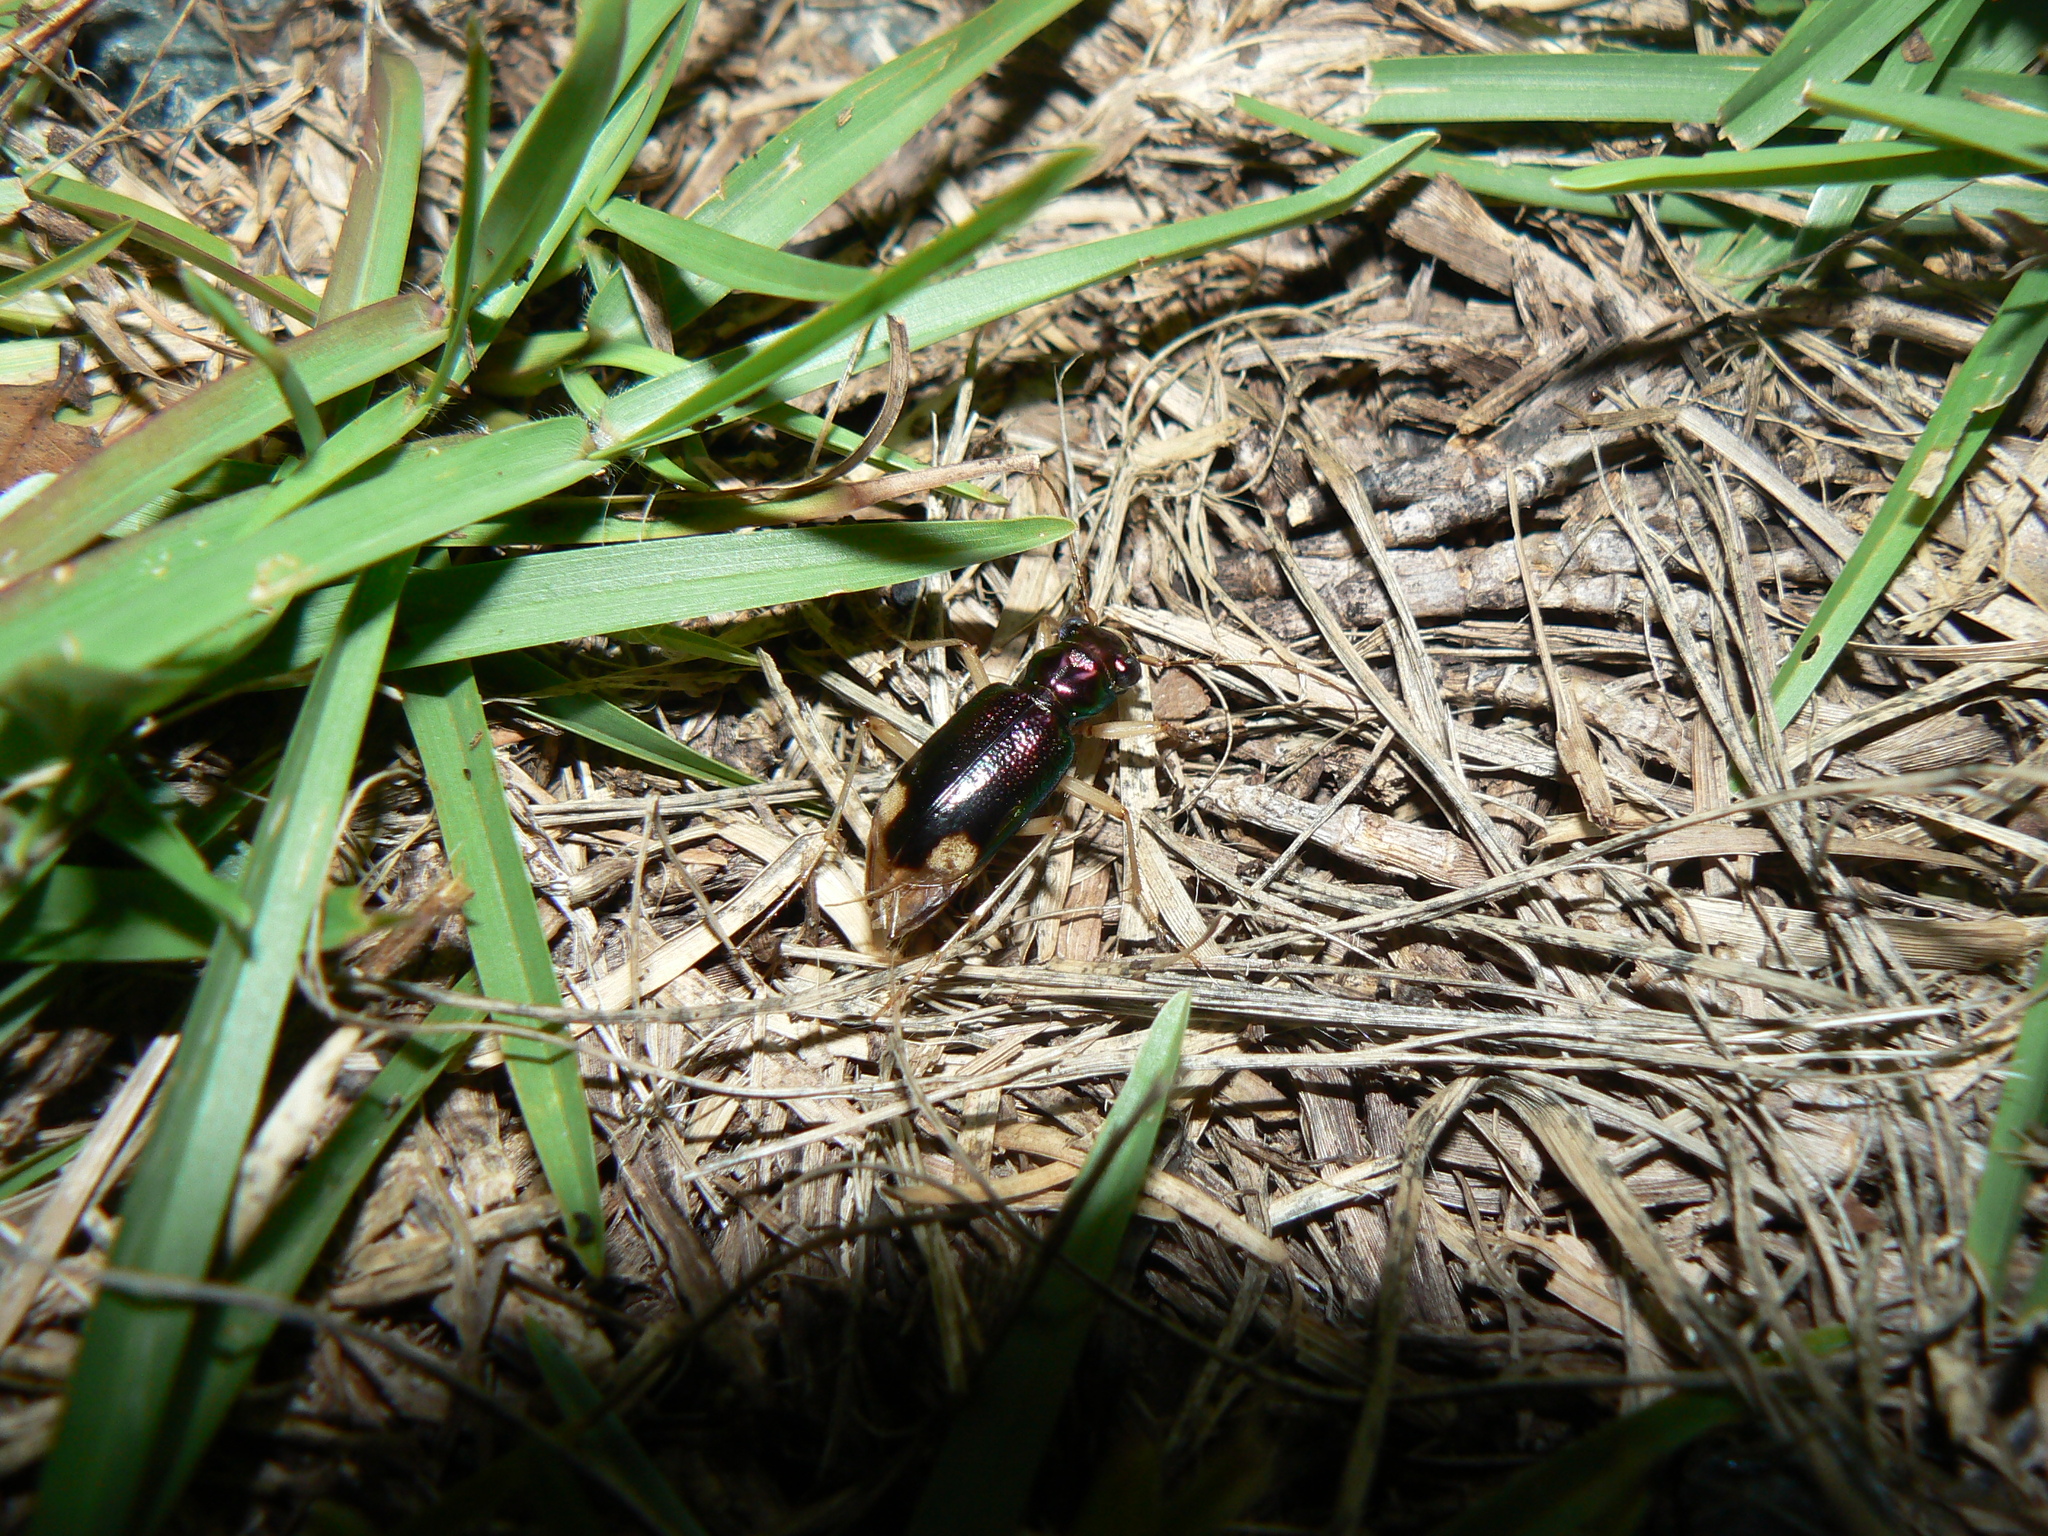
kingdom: Animalia
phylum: Arthropoda
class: Insecta
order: Coleoptera
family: Carabidae
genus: Tetracha
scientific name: Tetracha carolina
